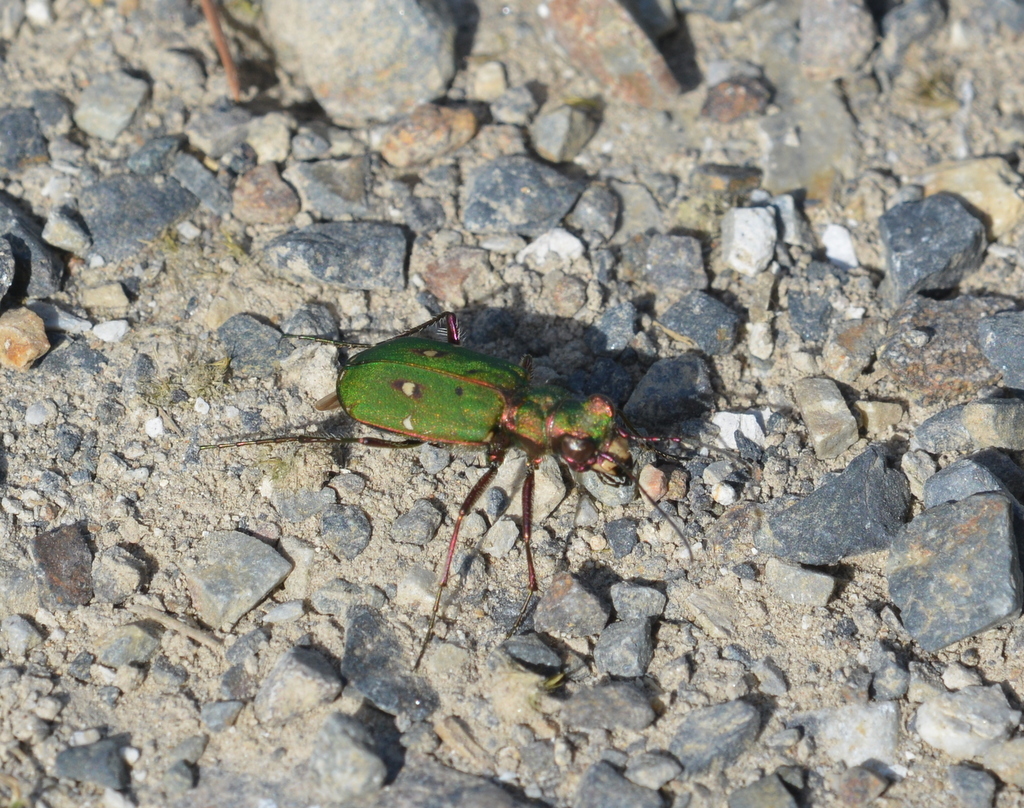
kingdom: Animalia
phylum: Arthropoda
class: Insecta
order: Coleoptera
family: Carabidae
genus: Cicindela
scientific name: Cicindela campestris
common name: Common tiger beetle
